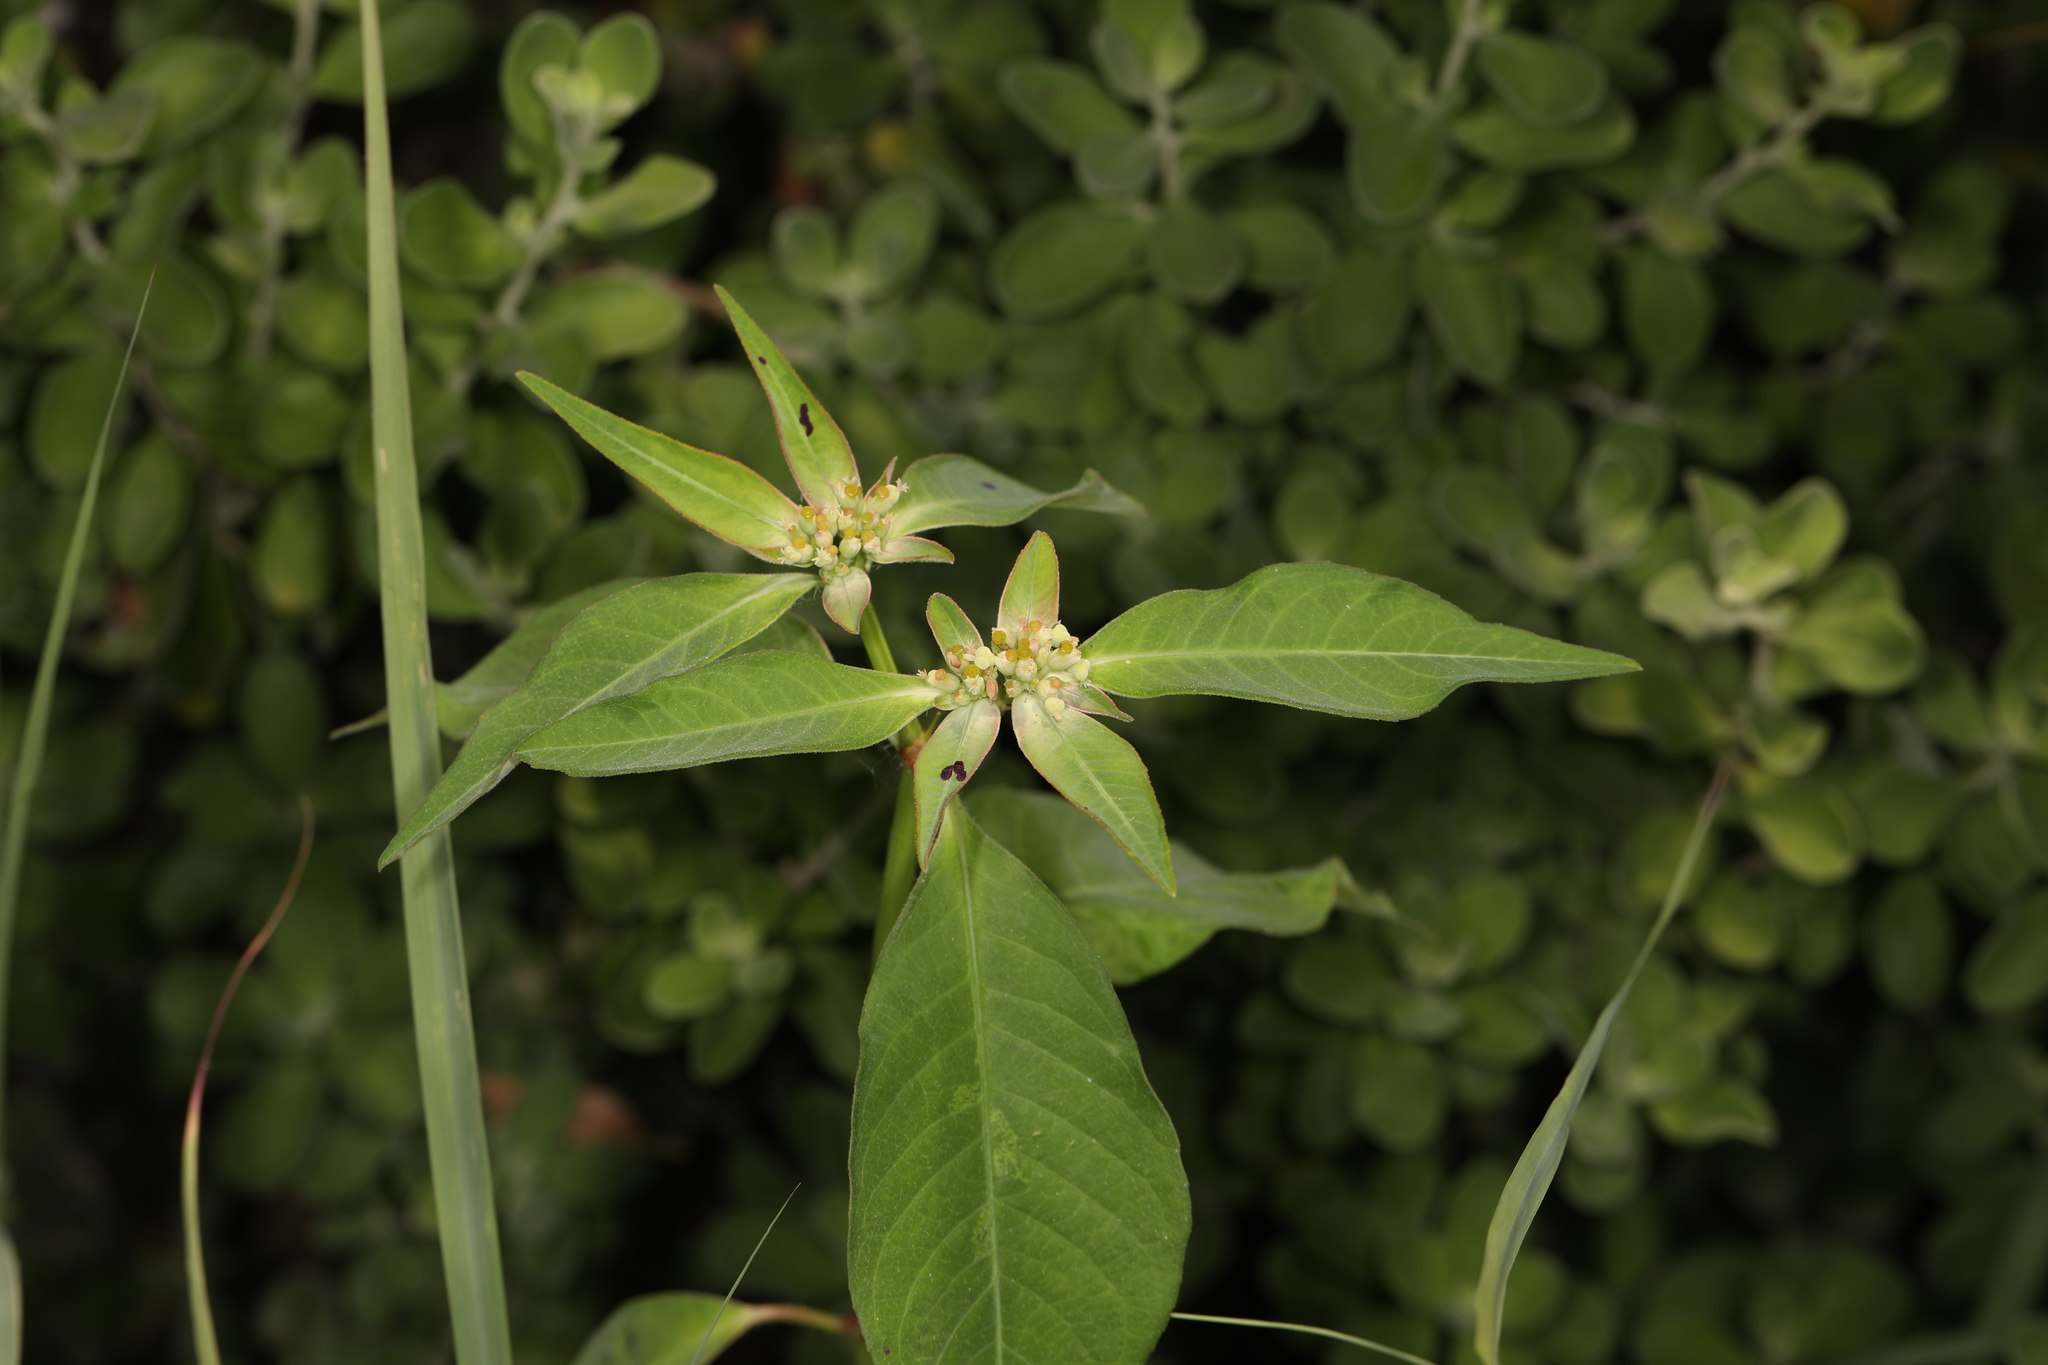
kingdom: Plantae
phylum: Tracheophyta
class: Magnoliopsida
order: Malpighiales
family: Euphorbiaceae
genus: Euphorbia
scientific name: Euphorbia heterophylla
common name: Mexican fireplant
